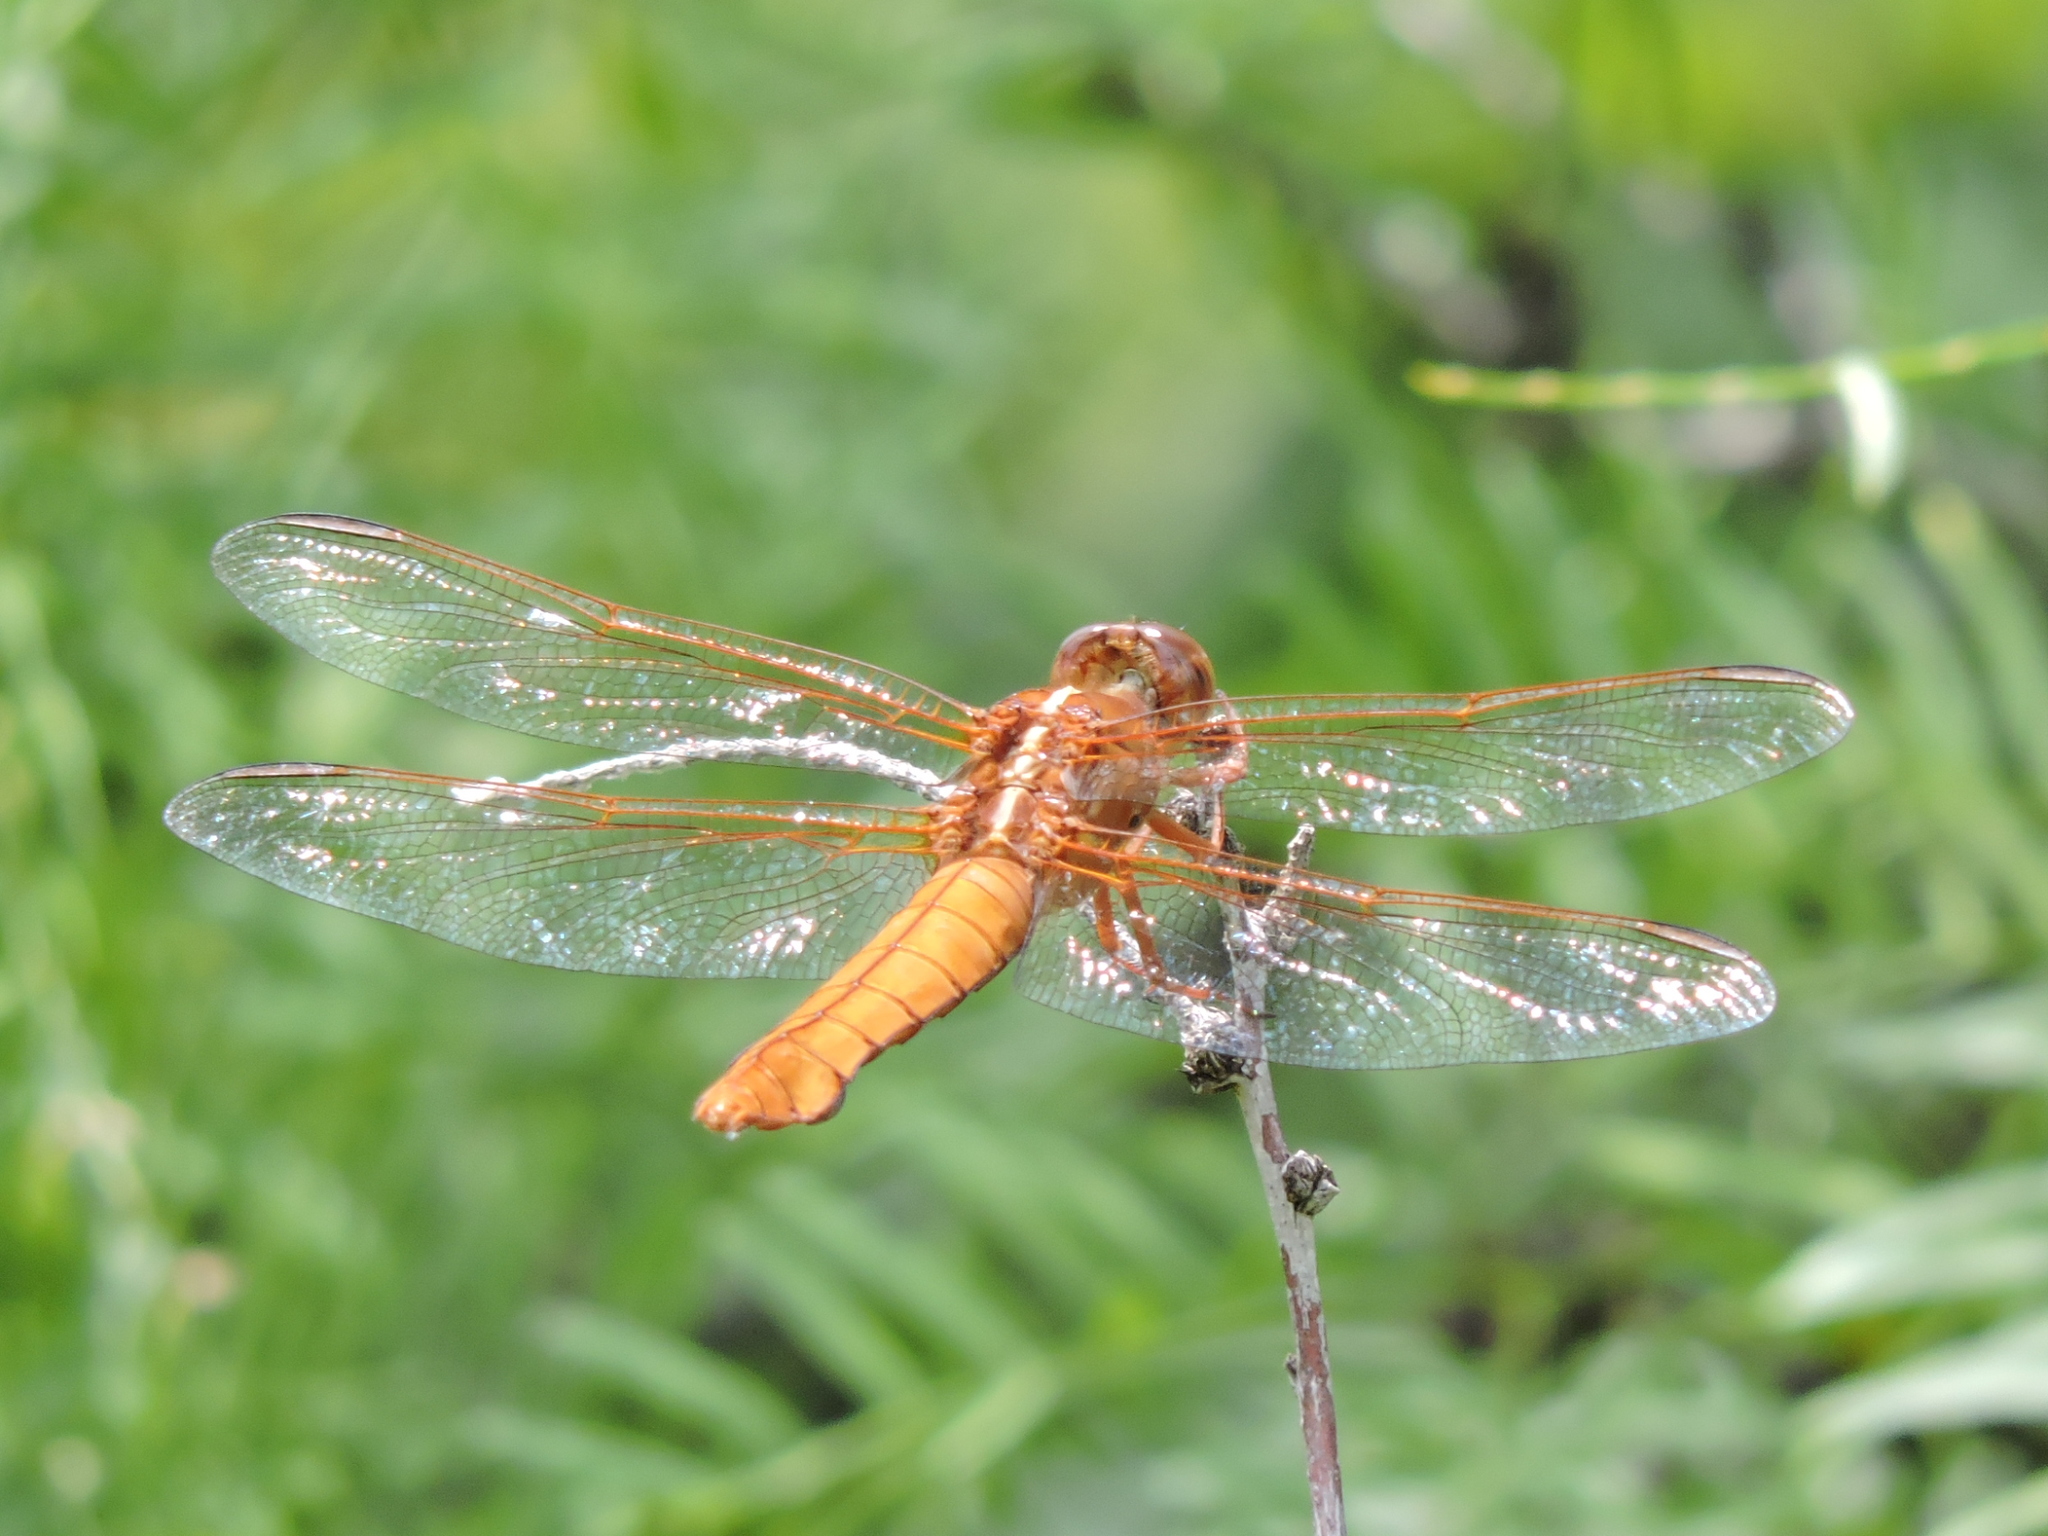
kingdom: Animalia
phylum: Arthropoda
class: Insecta
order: Odonata
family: Libellulidae
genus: Libellula
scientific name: Libellula croceipennis
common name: Neon skimmer
